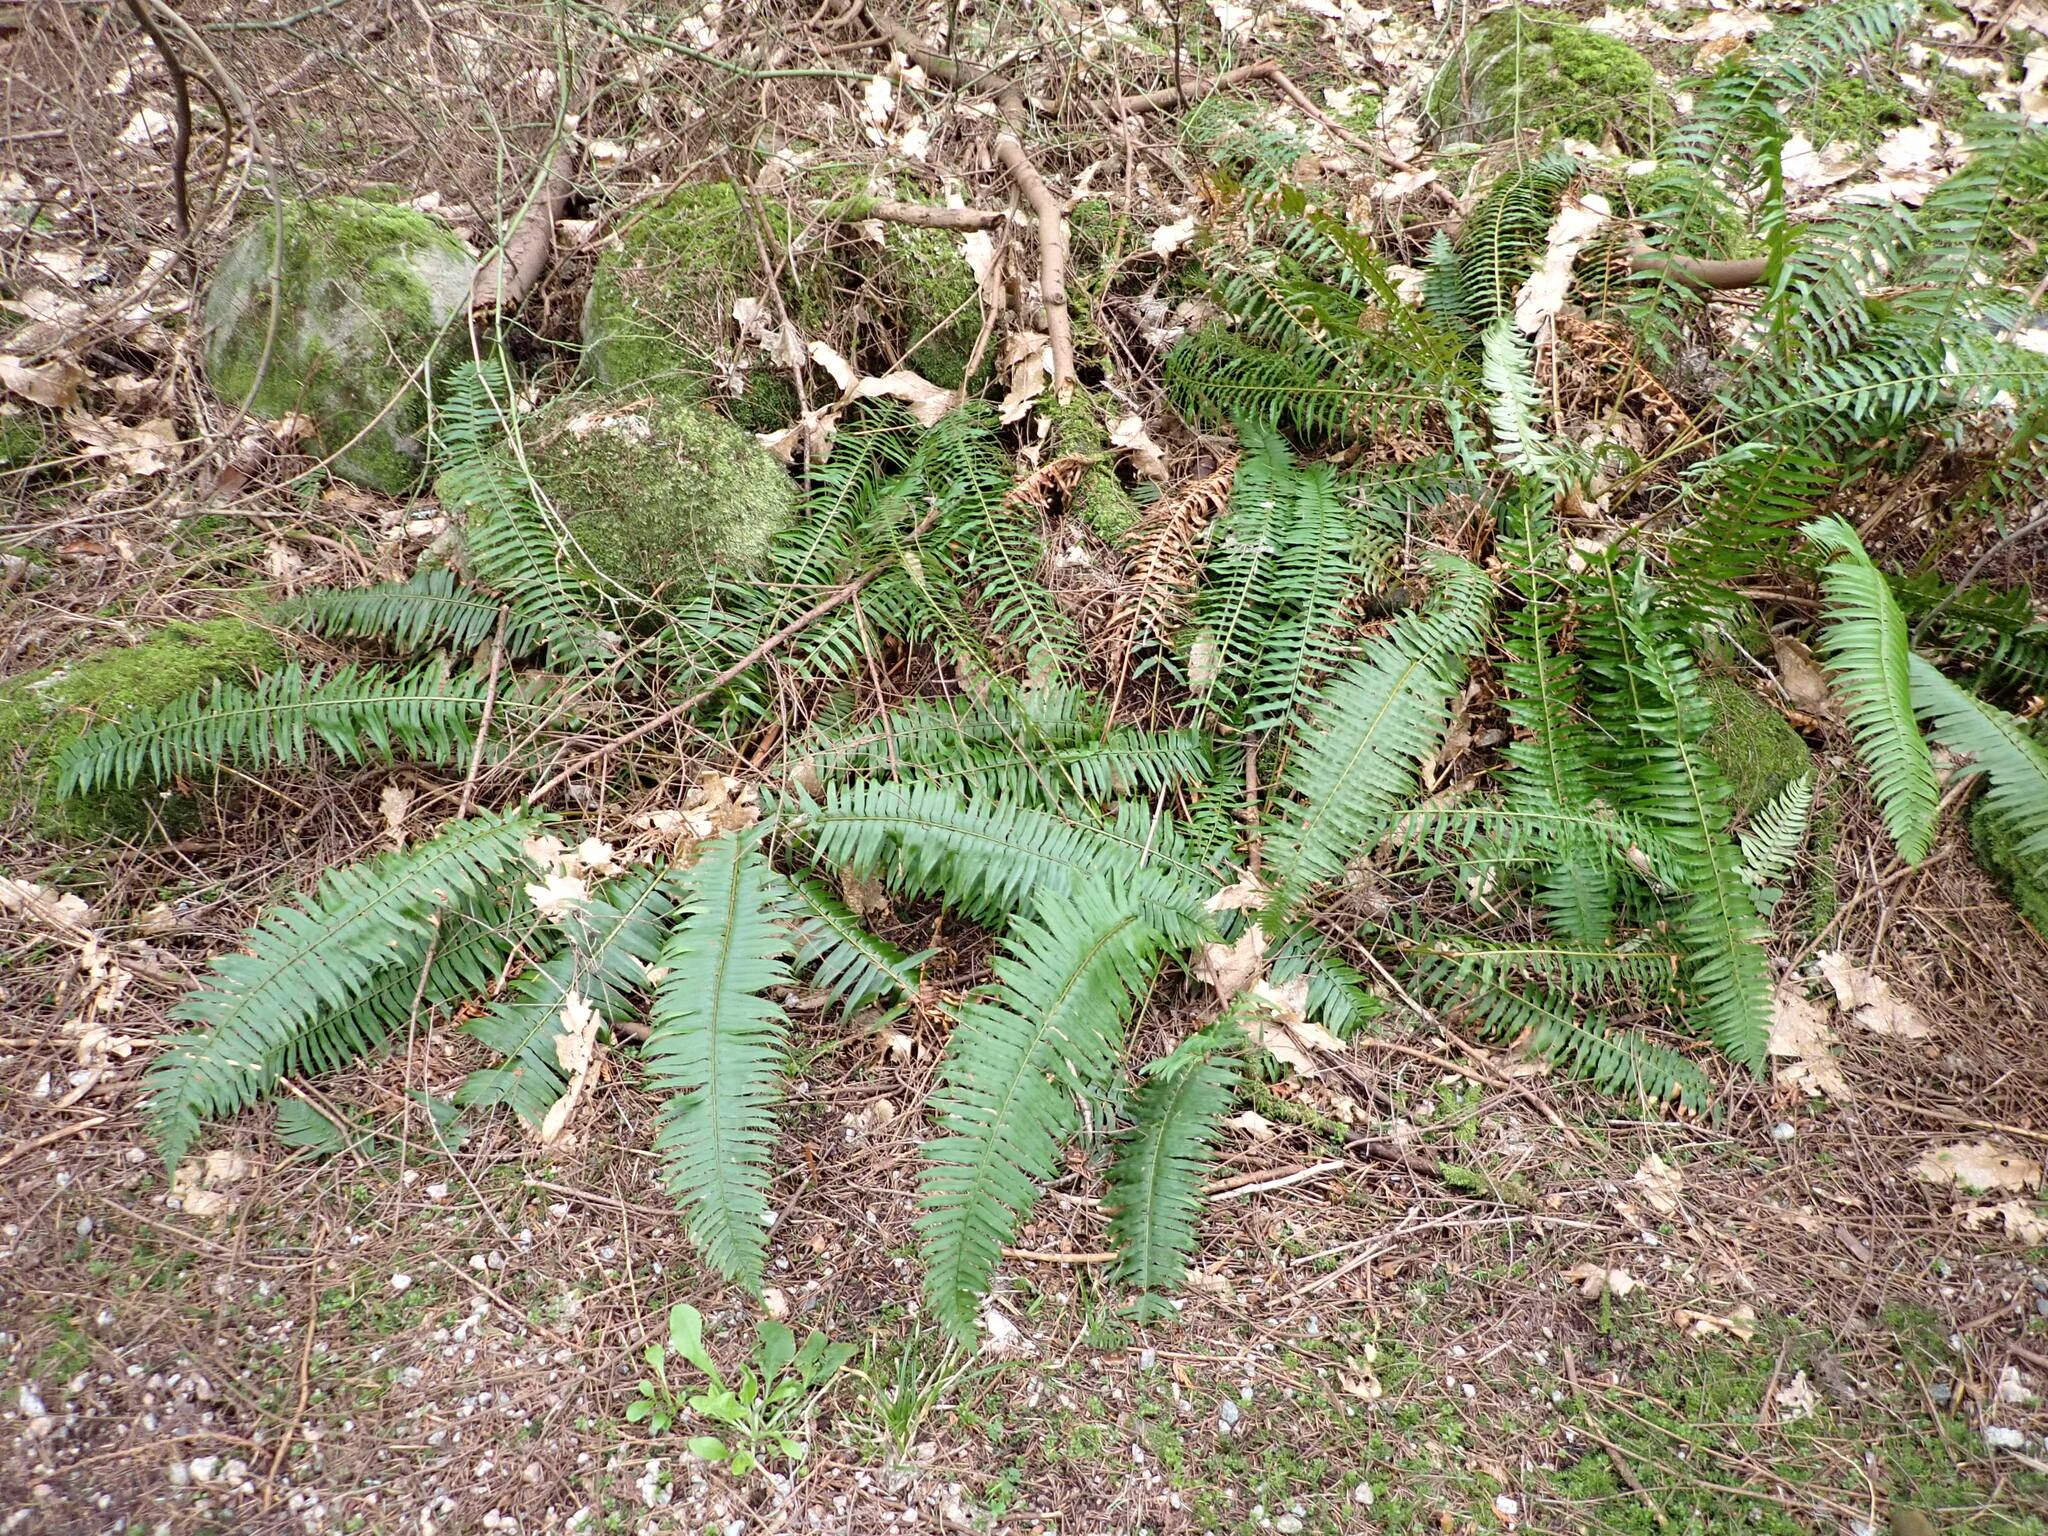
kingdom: Plantae
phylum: Tracheophyta
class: Polypodiopsida
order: Polypodiales
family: Dryopteridaceae
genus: Polystichum
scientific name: Polystichum munitum
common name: Western sword-fern
